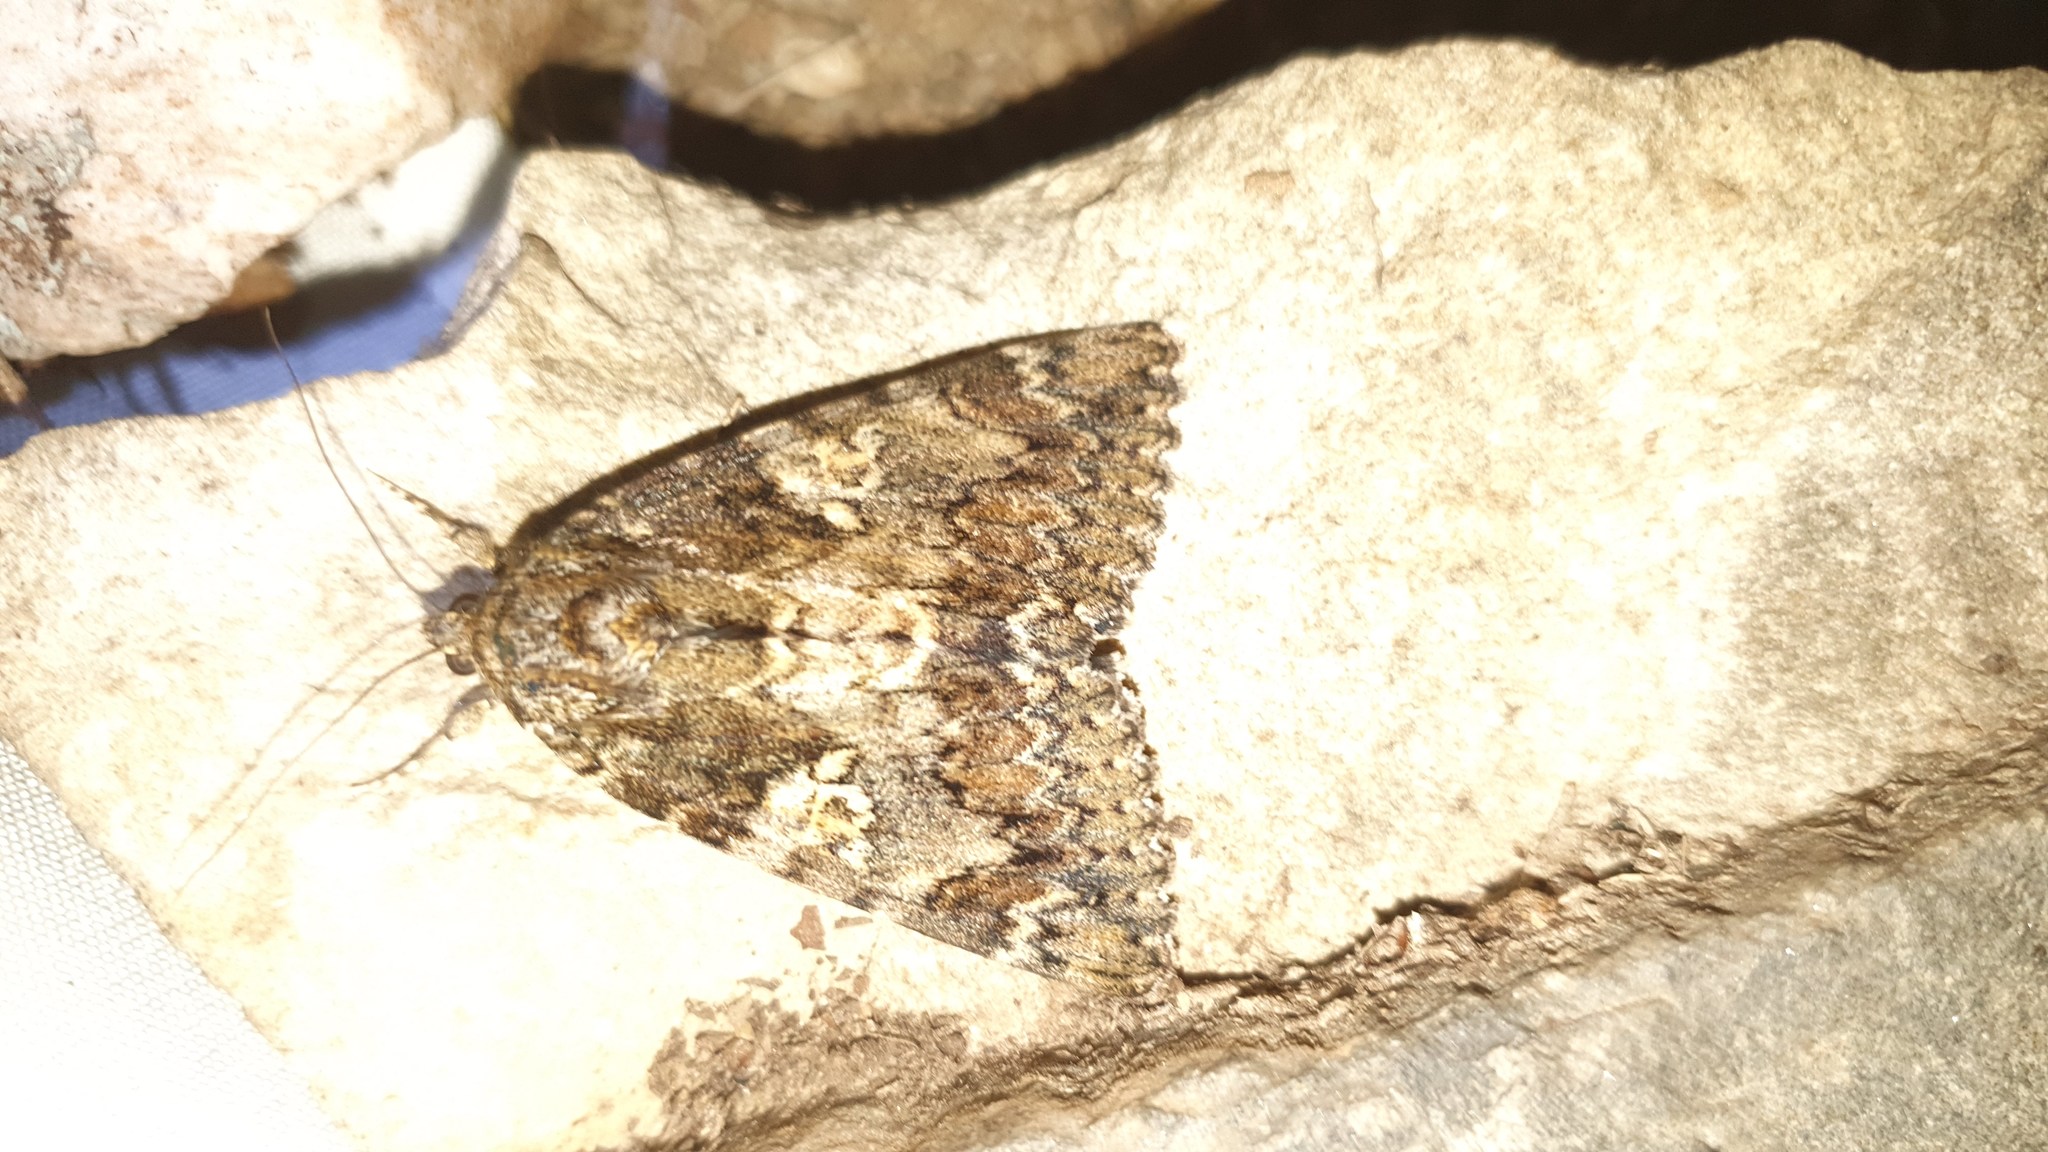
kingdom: Animalia
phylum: Arthropoda
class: Insecta
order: Lepidoptera
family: Erebidae
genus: Catocala
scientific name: Catocala sponsa
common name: Dark crimson underwing
